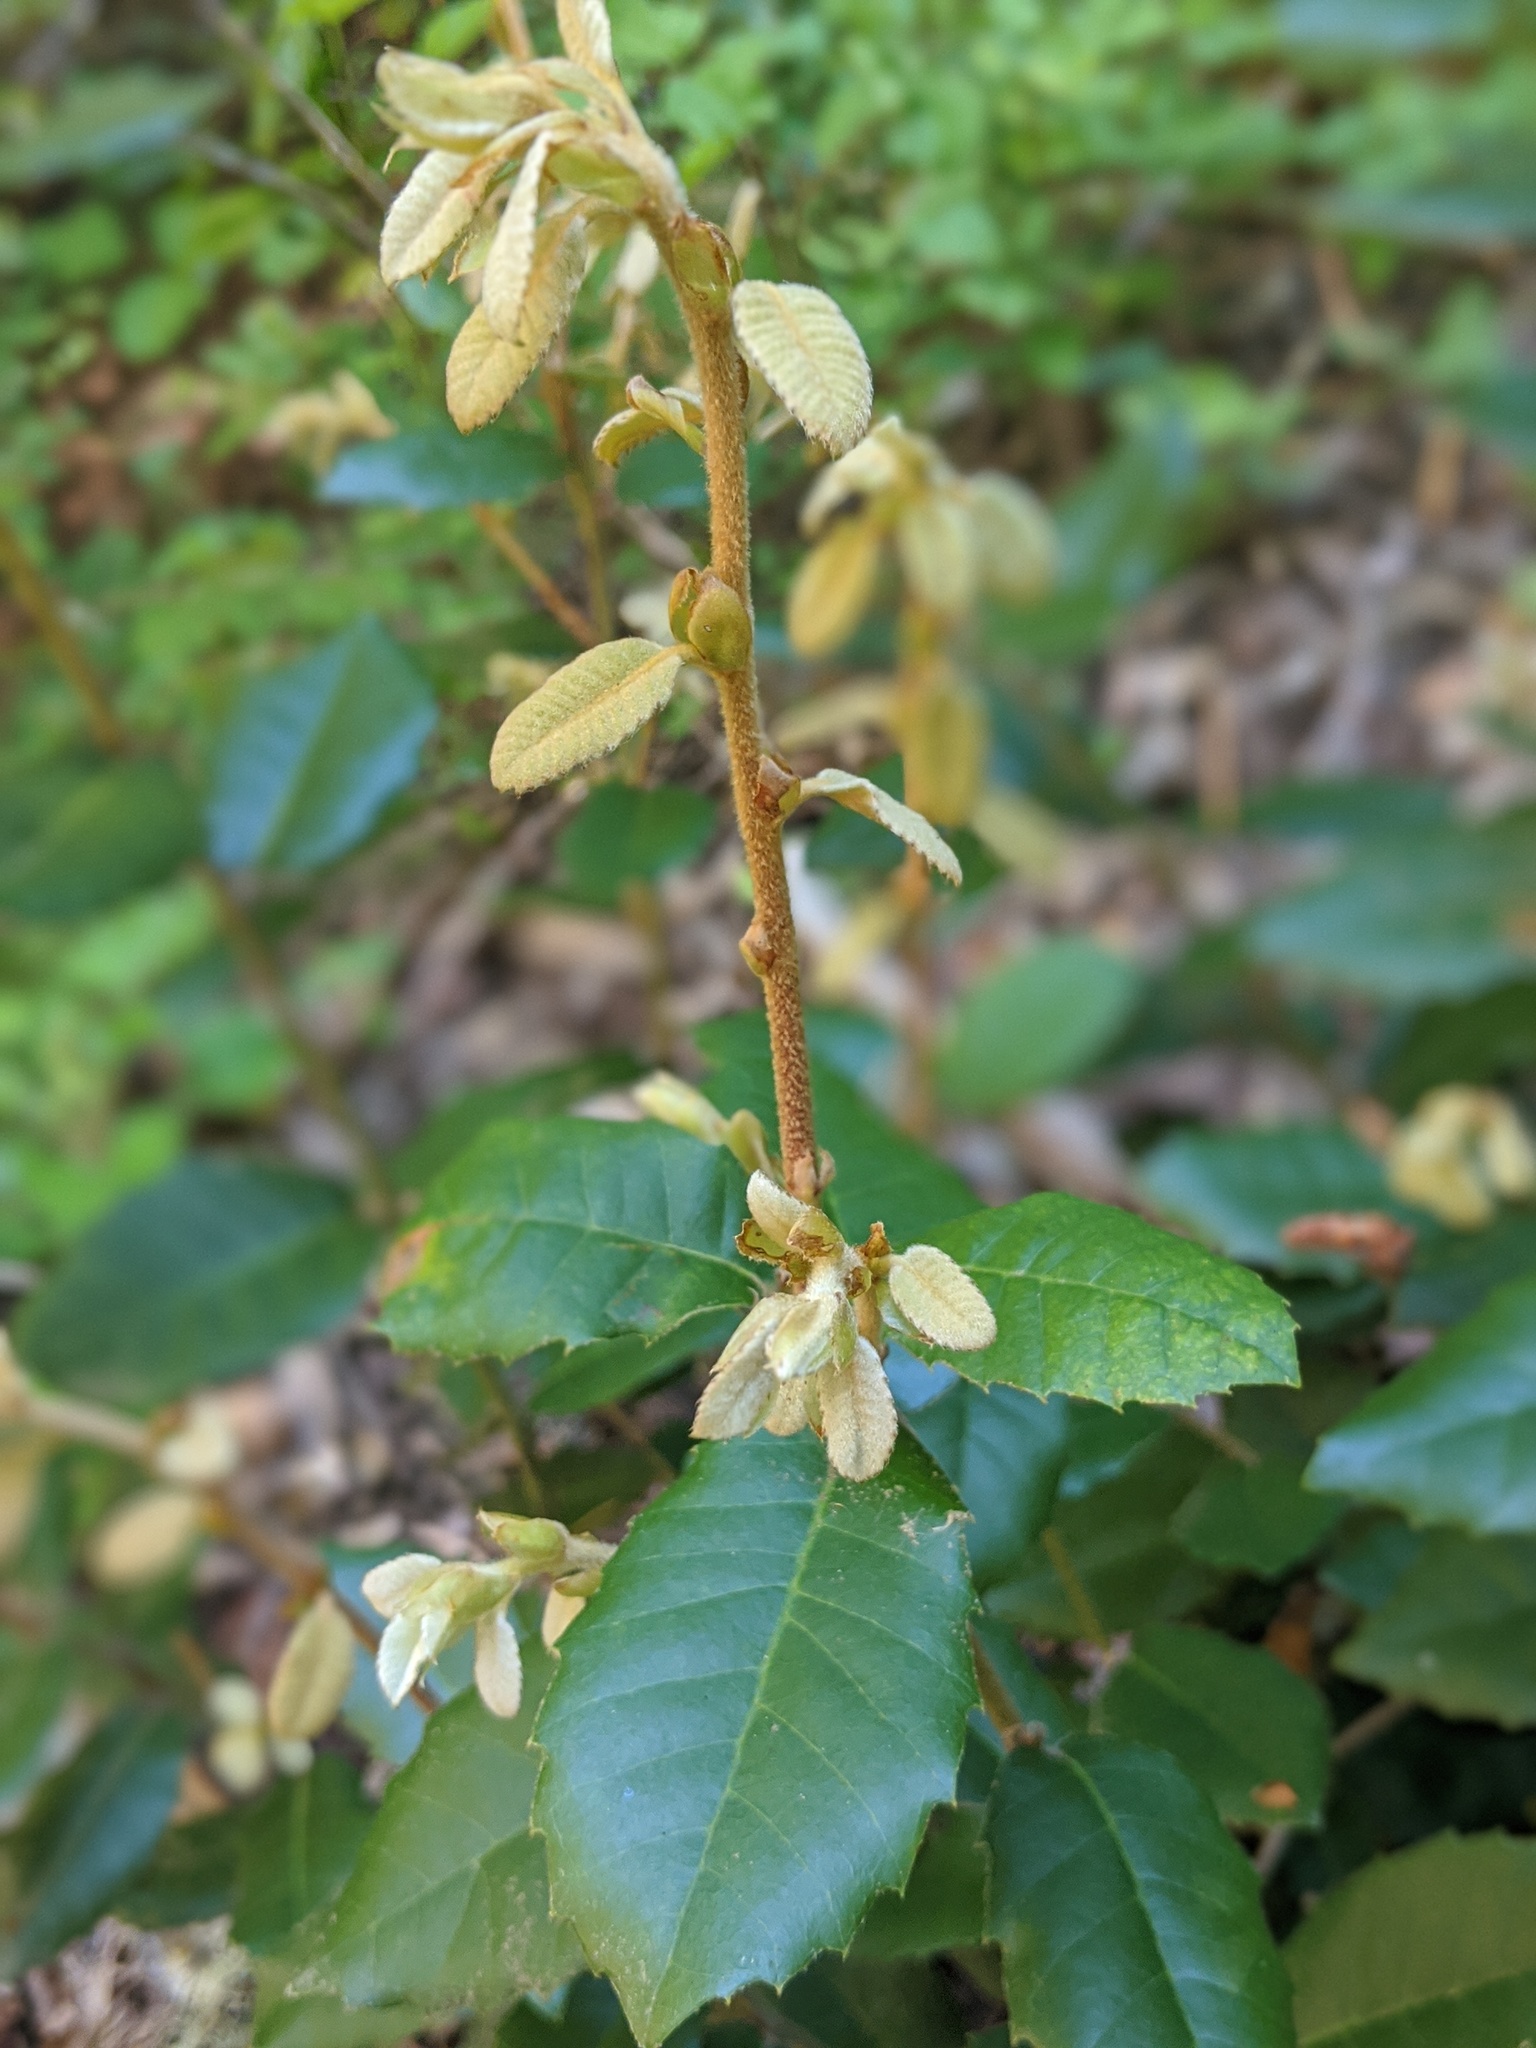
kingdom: Plantae
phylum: Tracheophyta
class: Magnoliopsida
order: Fagales
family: Fagaceae
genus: Notholithocarpus
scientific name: Notholithocarpus densiflorus
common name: Tan bark oak
